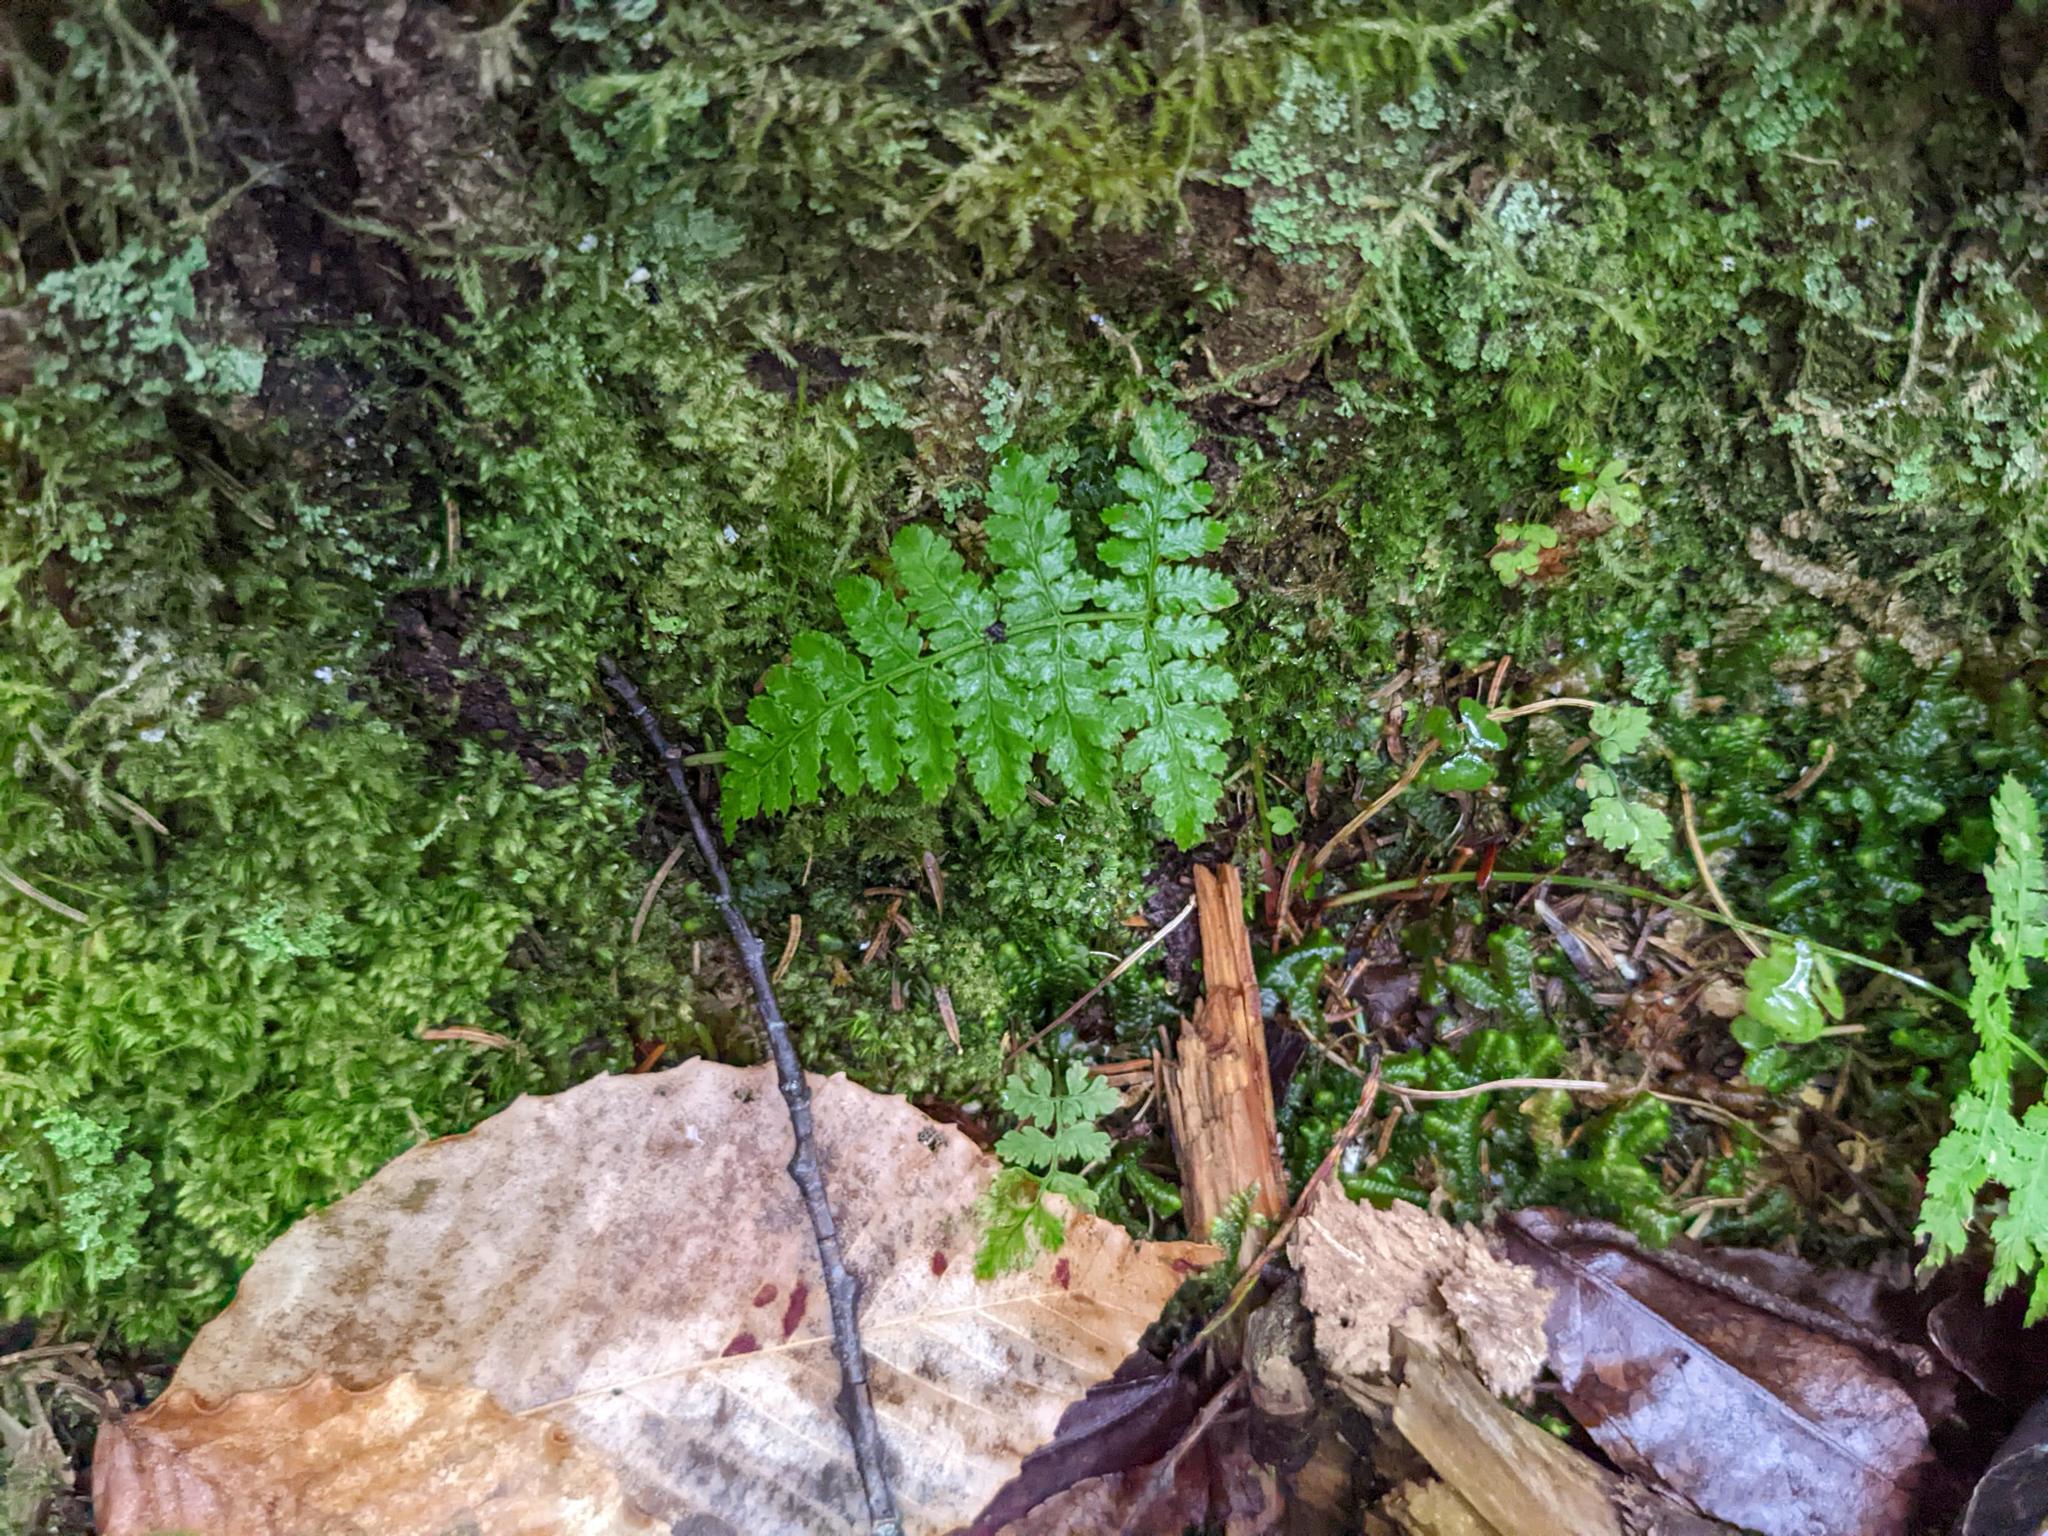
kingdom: Plantae
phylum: Tracheophyta
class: Polypodiopsida
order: Polypodiales
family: Dryopteridaceae
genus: Dryopteris
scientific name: Dryopteris intermedia
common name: Evergreen wood fern
